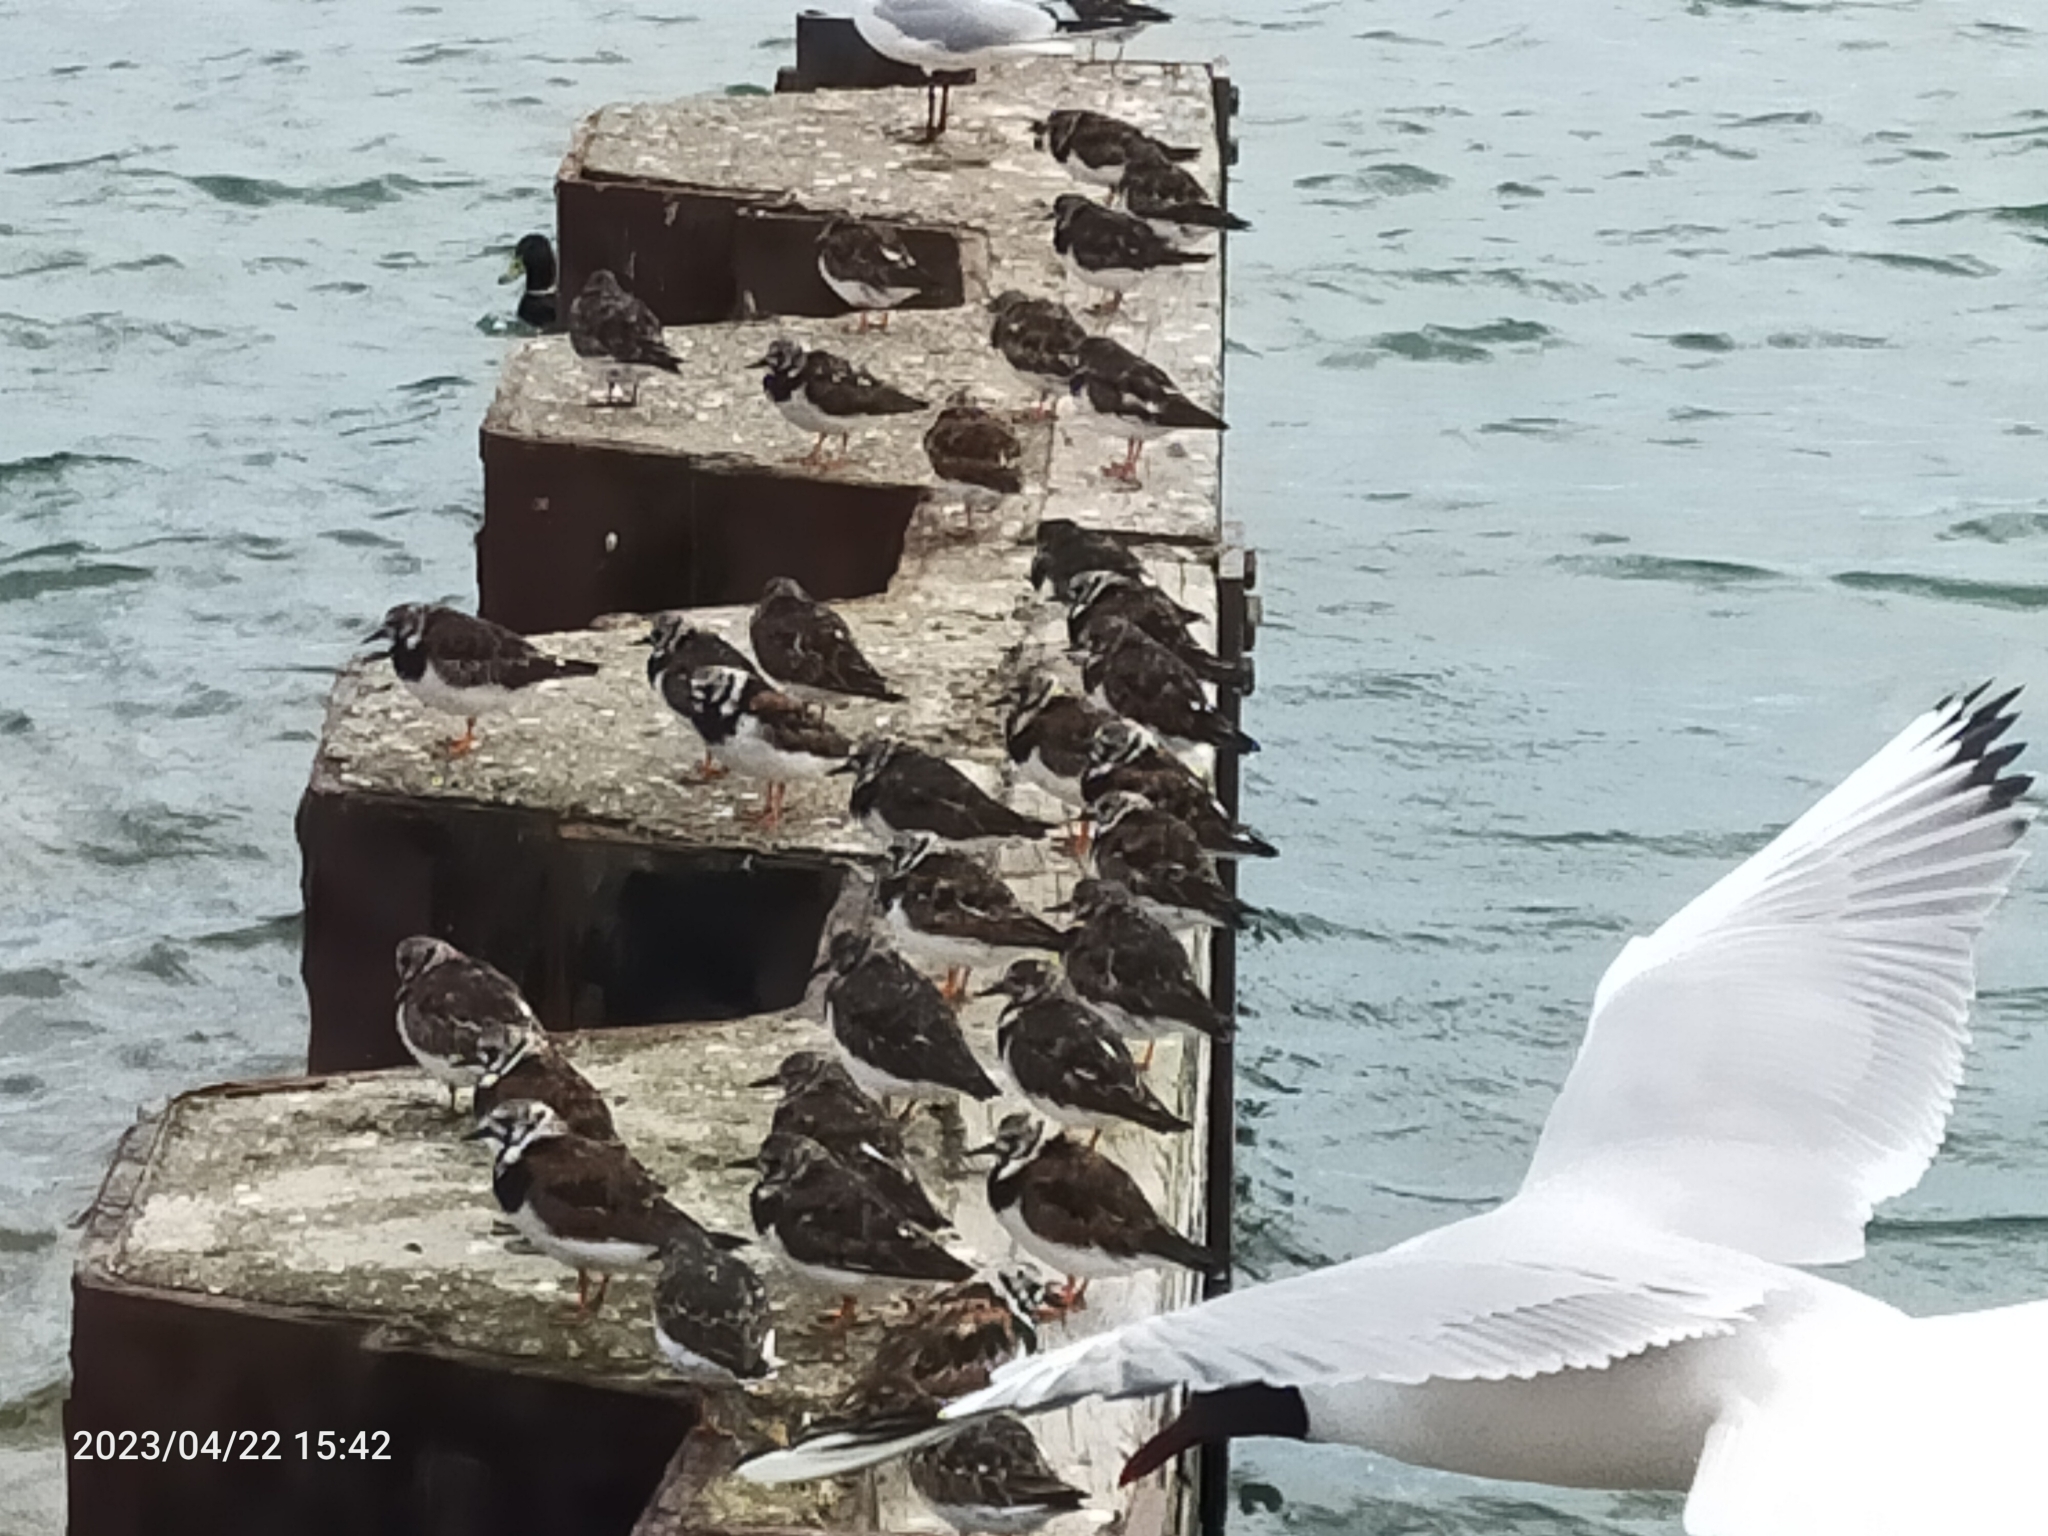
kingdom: Animalia
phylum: Chordata
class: Aves
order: Charadriiformes
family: Scolopacidae
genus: Arenaria
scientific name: Arenaria interpres
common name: Ruddy turnstone
